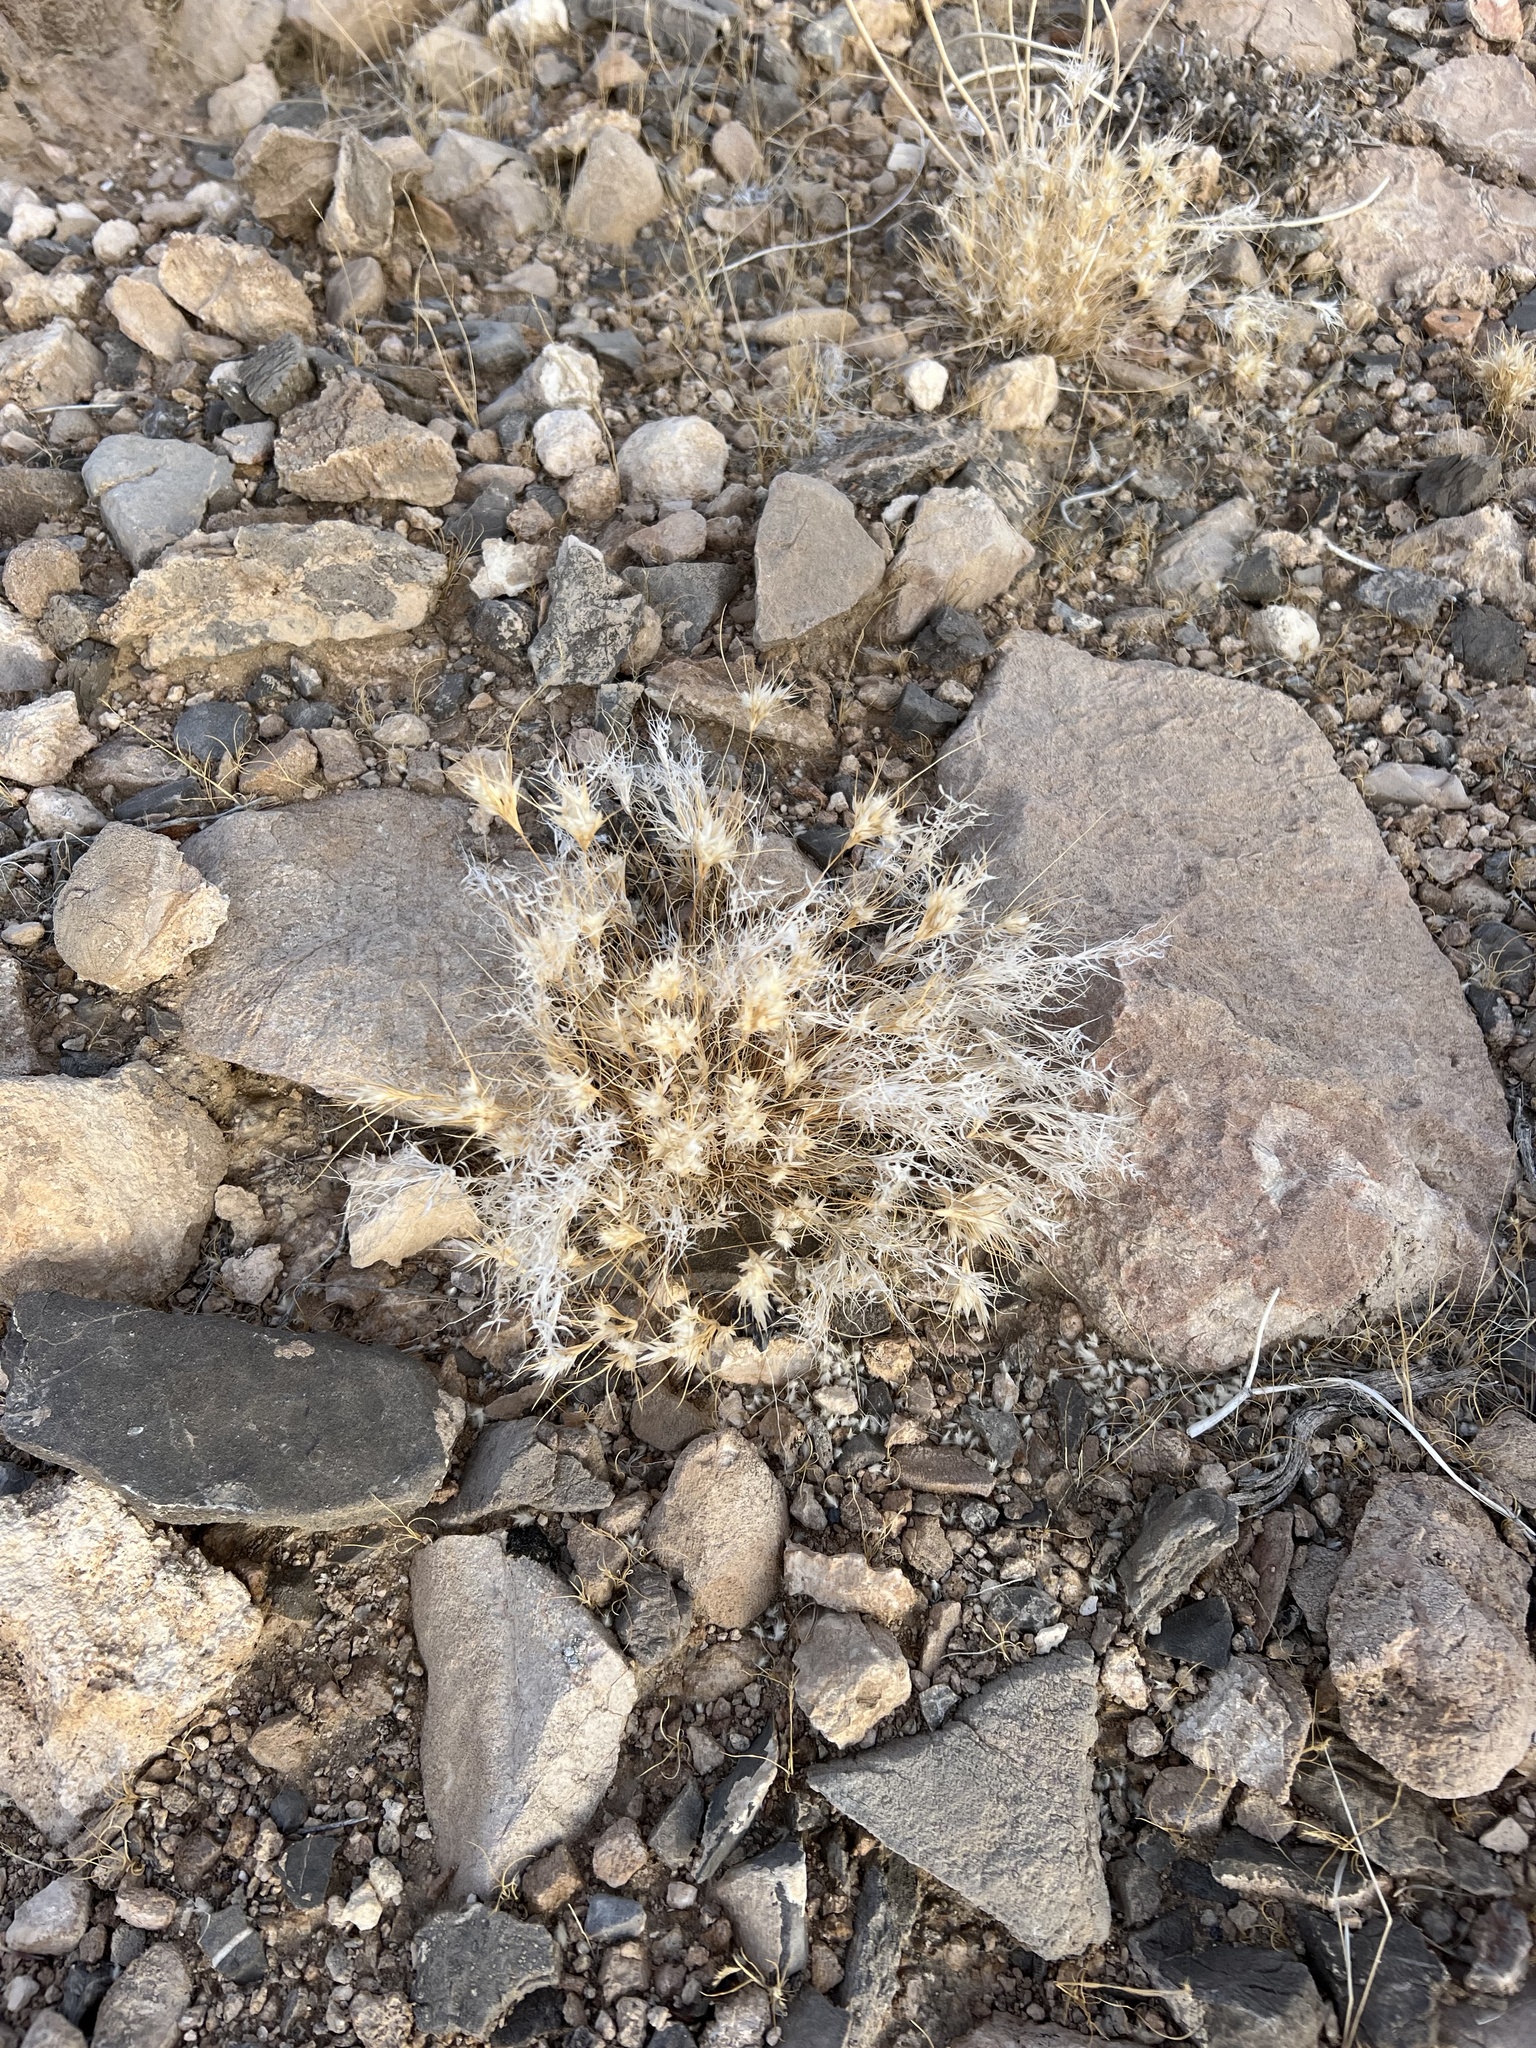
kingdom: Plantae
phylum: Tracheophyta
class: Liliopsida
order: Poales
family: Poaceae
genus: Dasyochloa
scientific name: Dasyochloa pulchella
